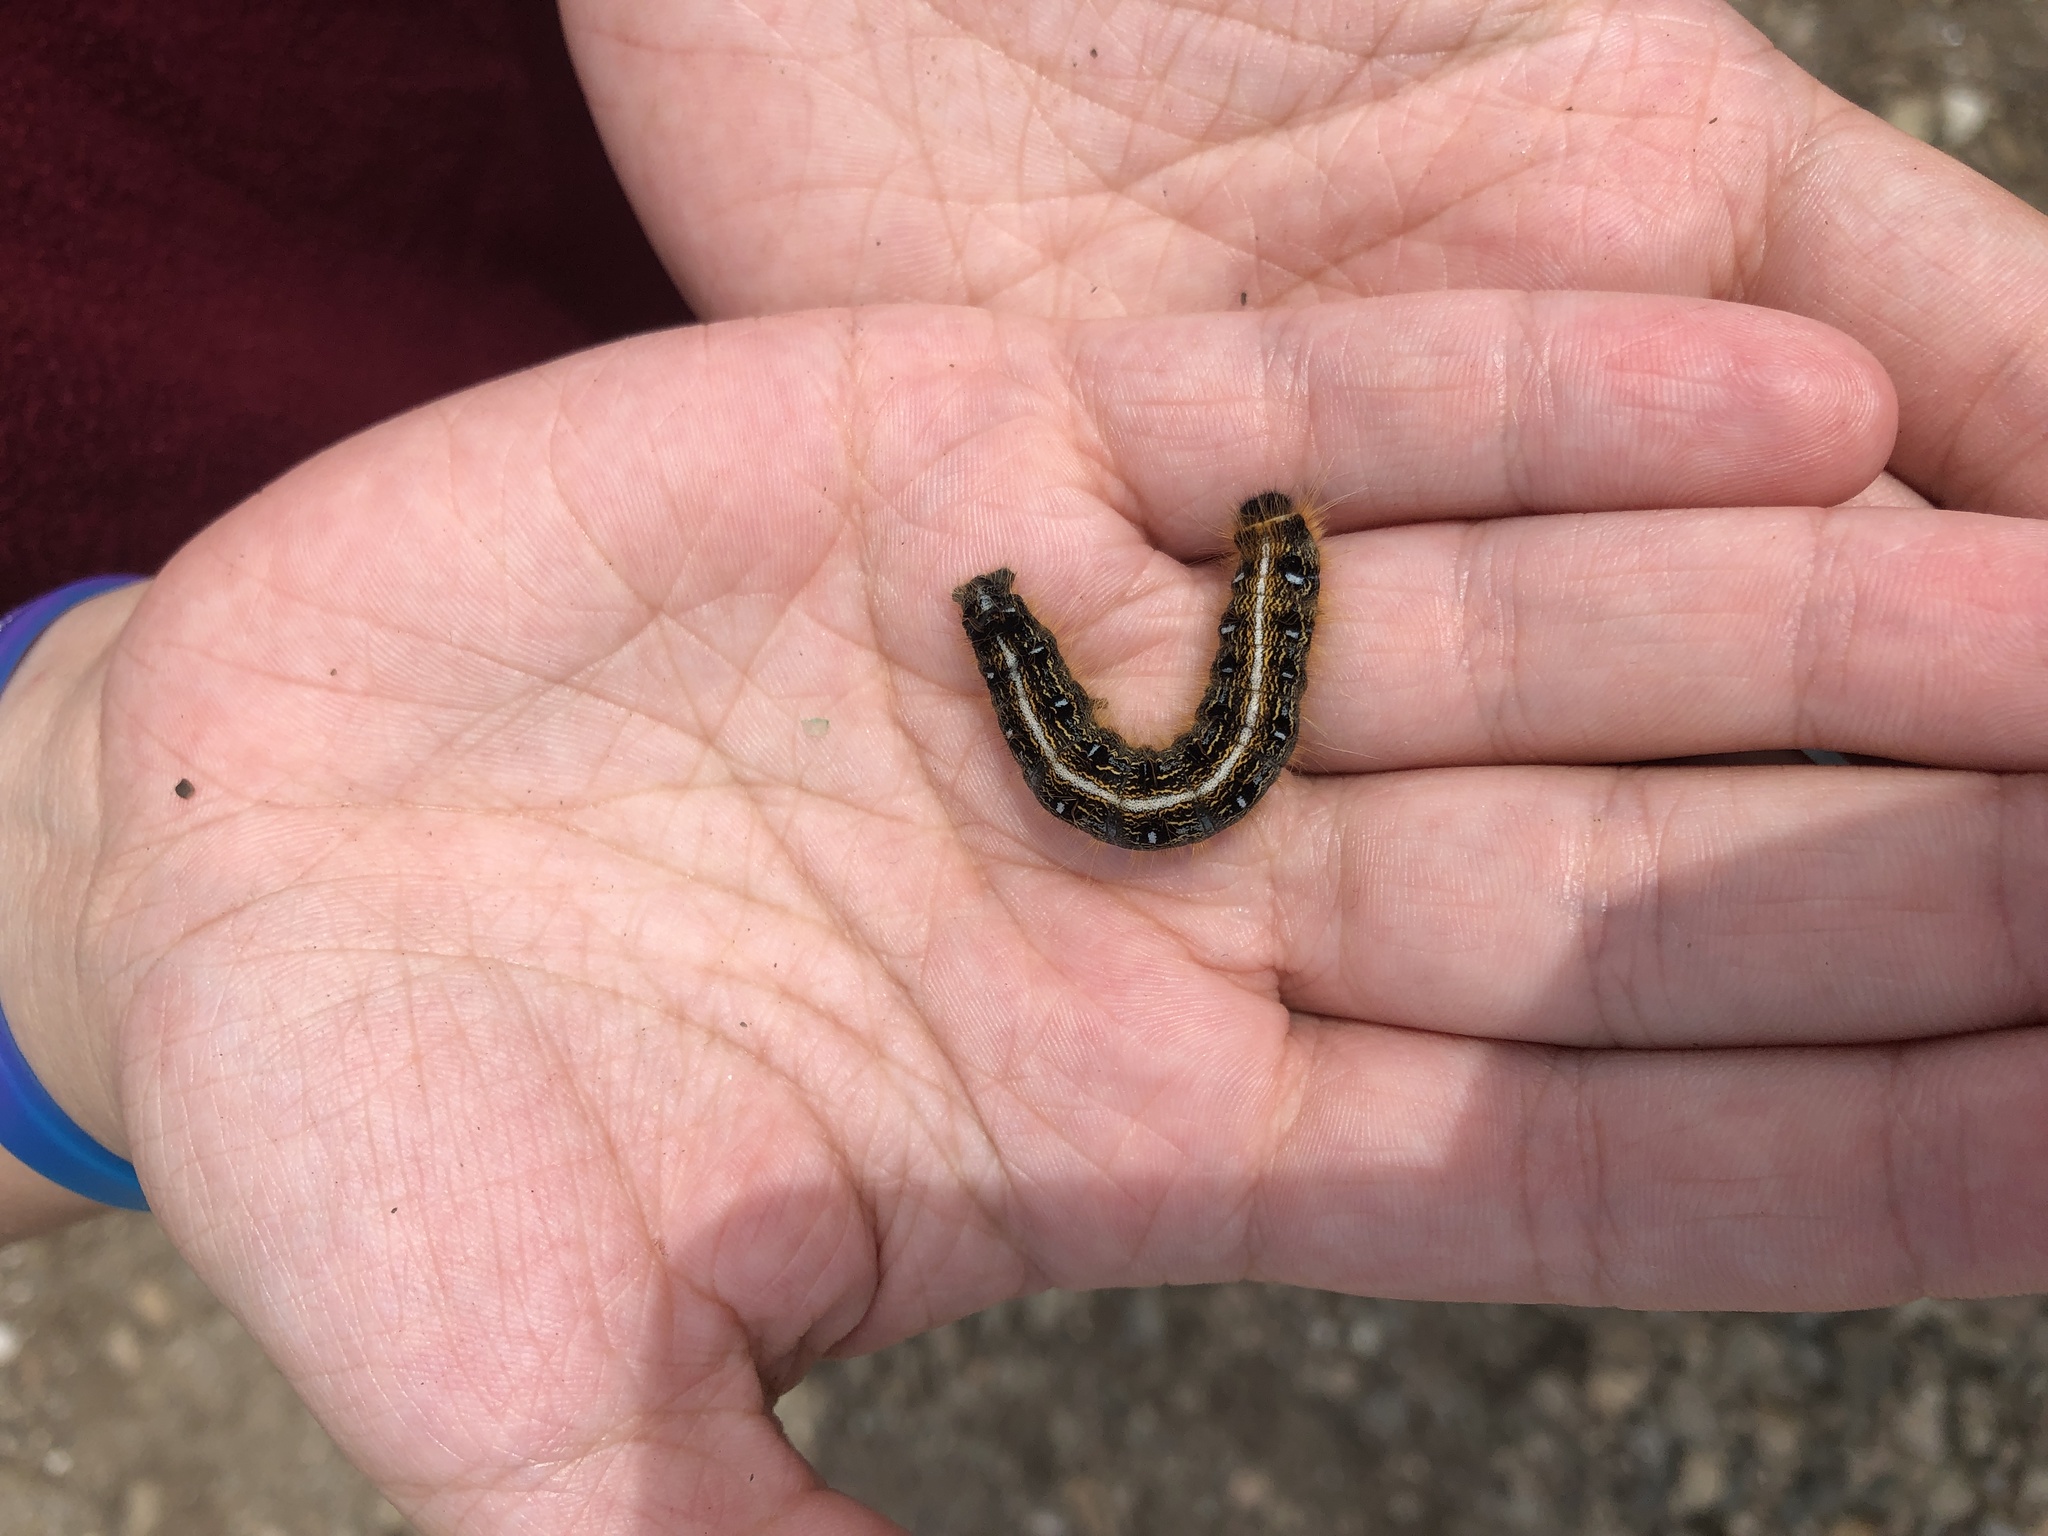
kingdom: Animalia
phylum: Arthropoda
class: Insecta
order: Lepidoptera
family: Lasiocampidae
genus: Malacosoma
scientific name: Malacosoma americana
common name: Eastern tent caterpillar moth
